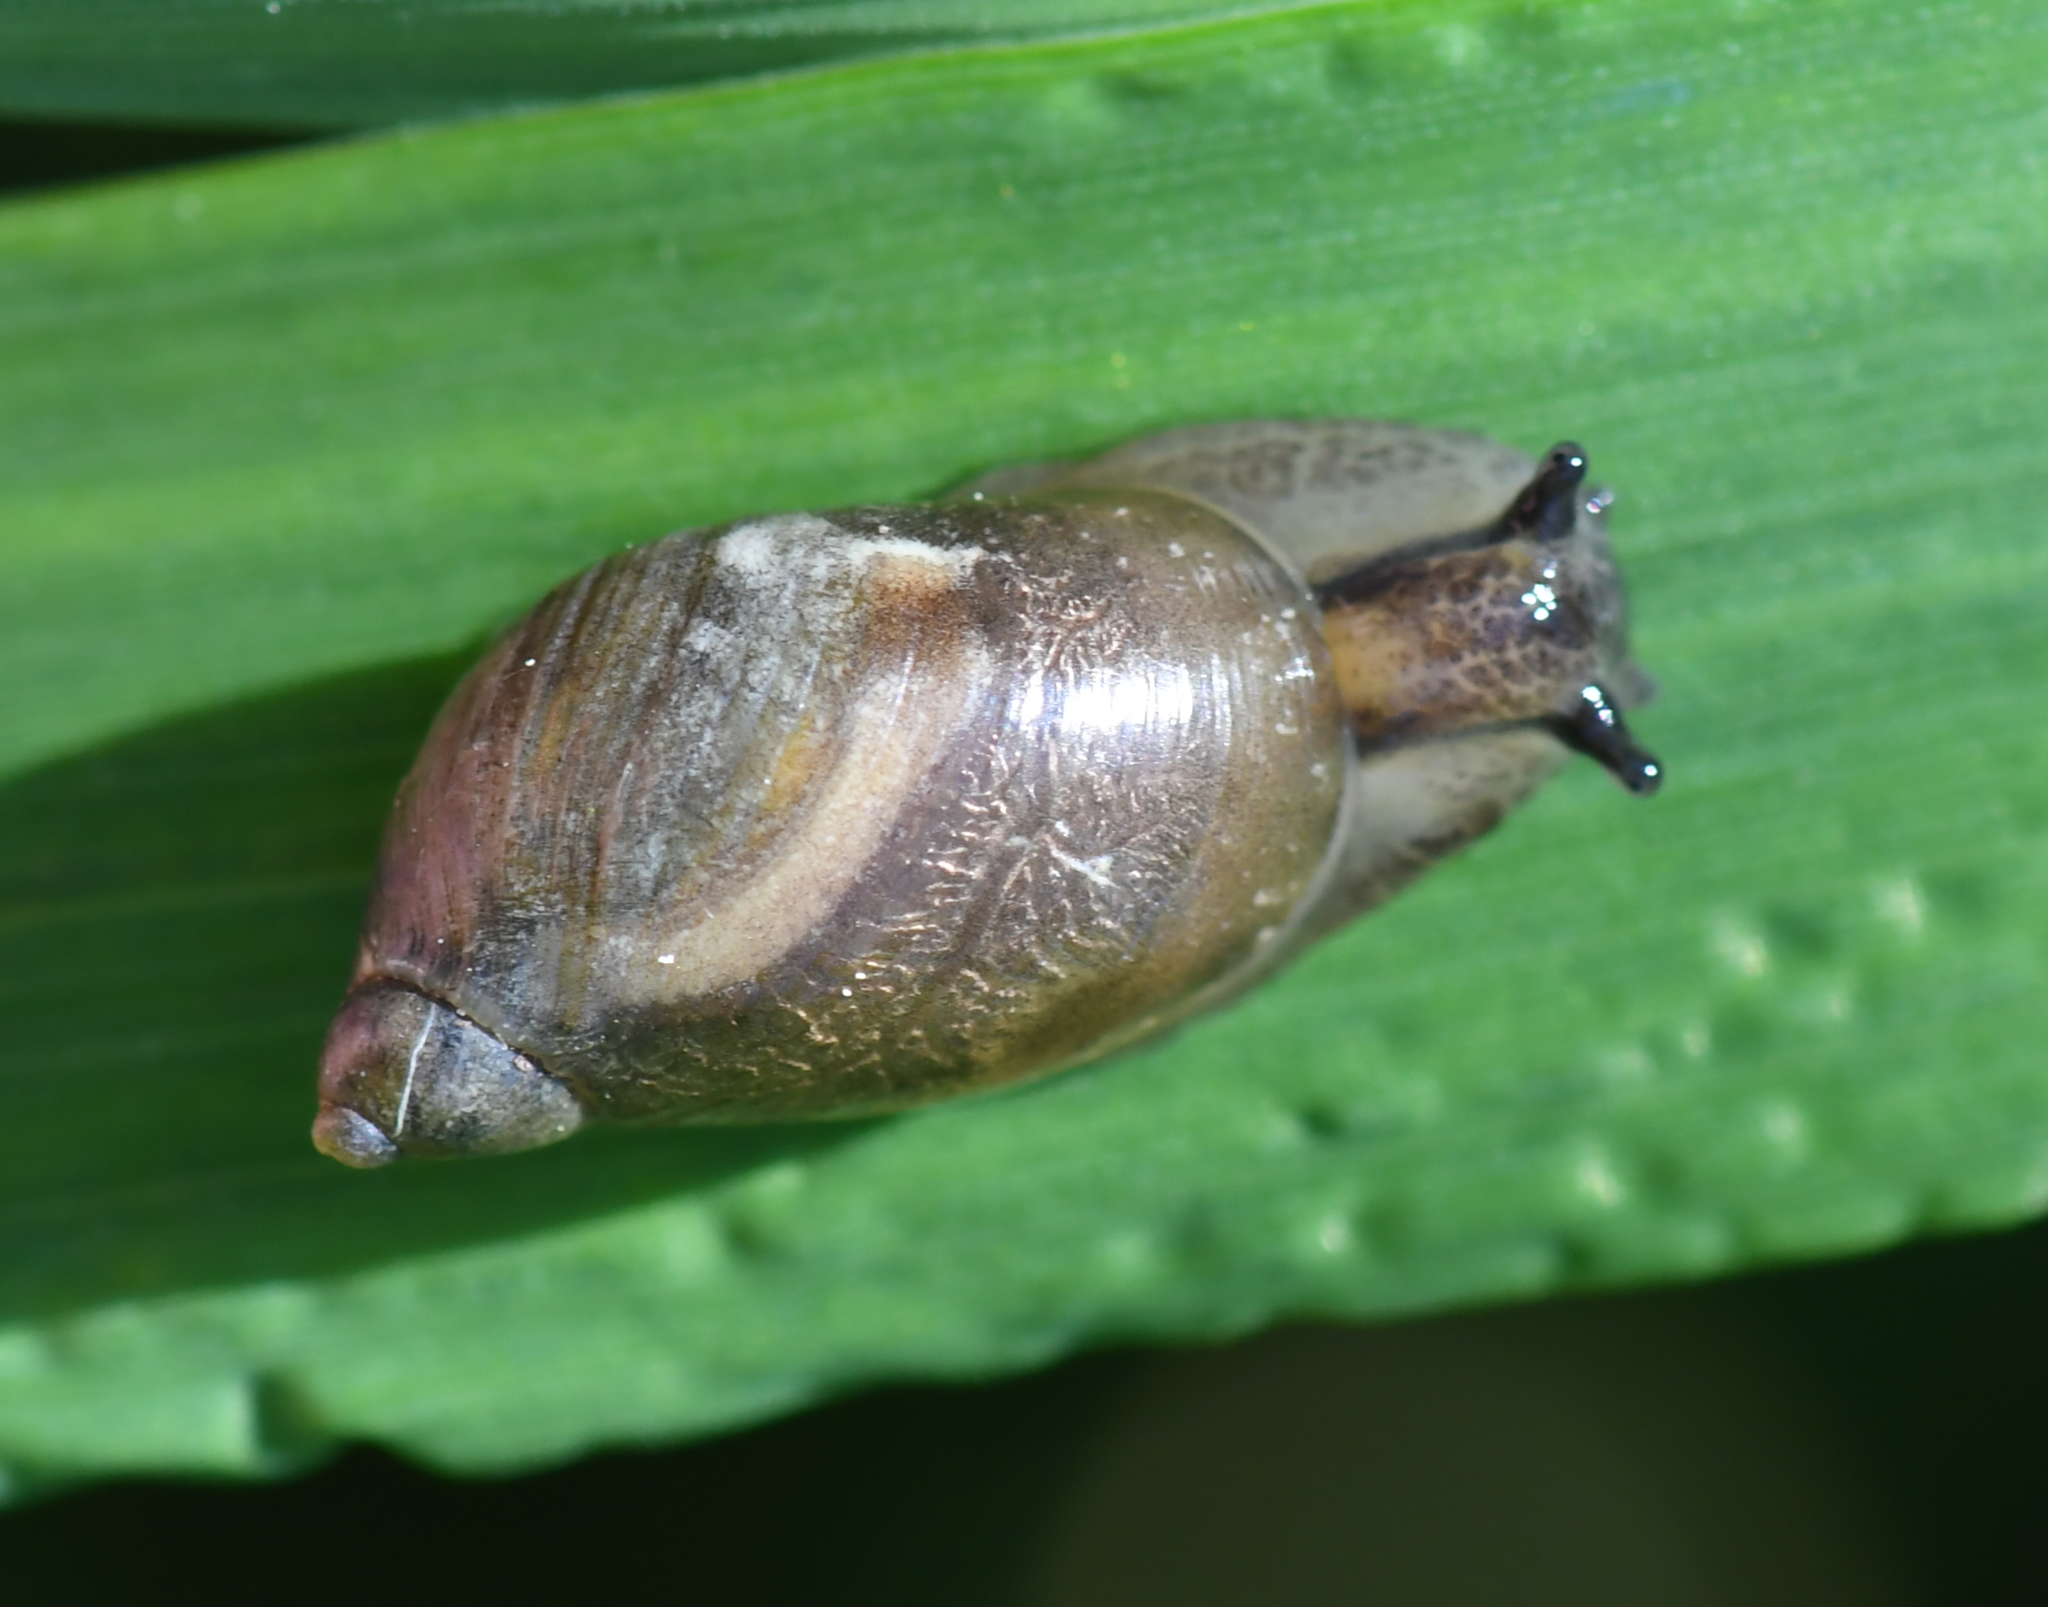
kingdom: Animalia
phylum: Mollusca
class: Gastropoda
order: Stylommatophora
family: Succineidae
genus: Succinea
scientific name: Succinea putris
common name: European ambersnail
